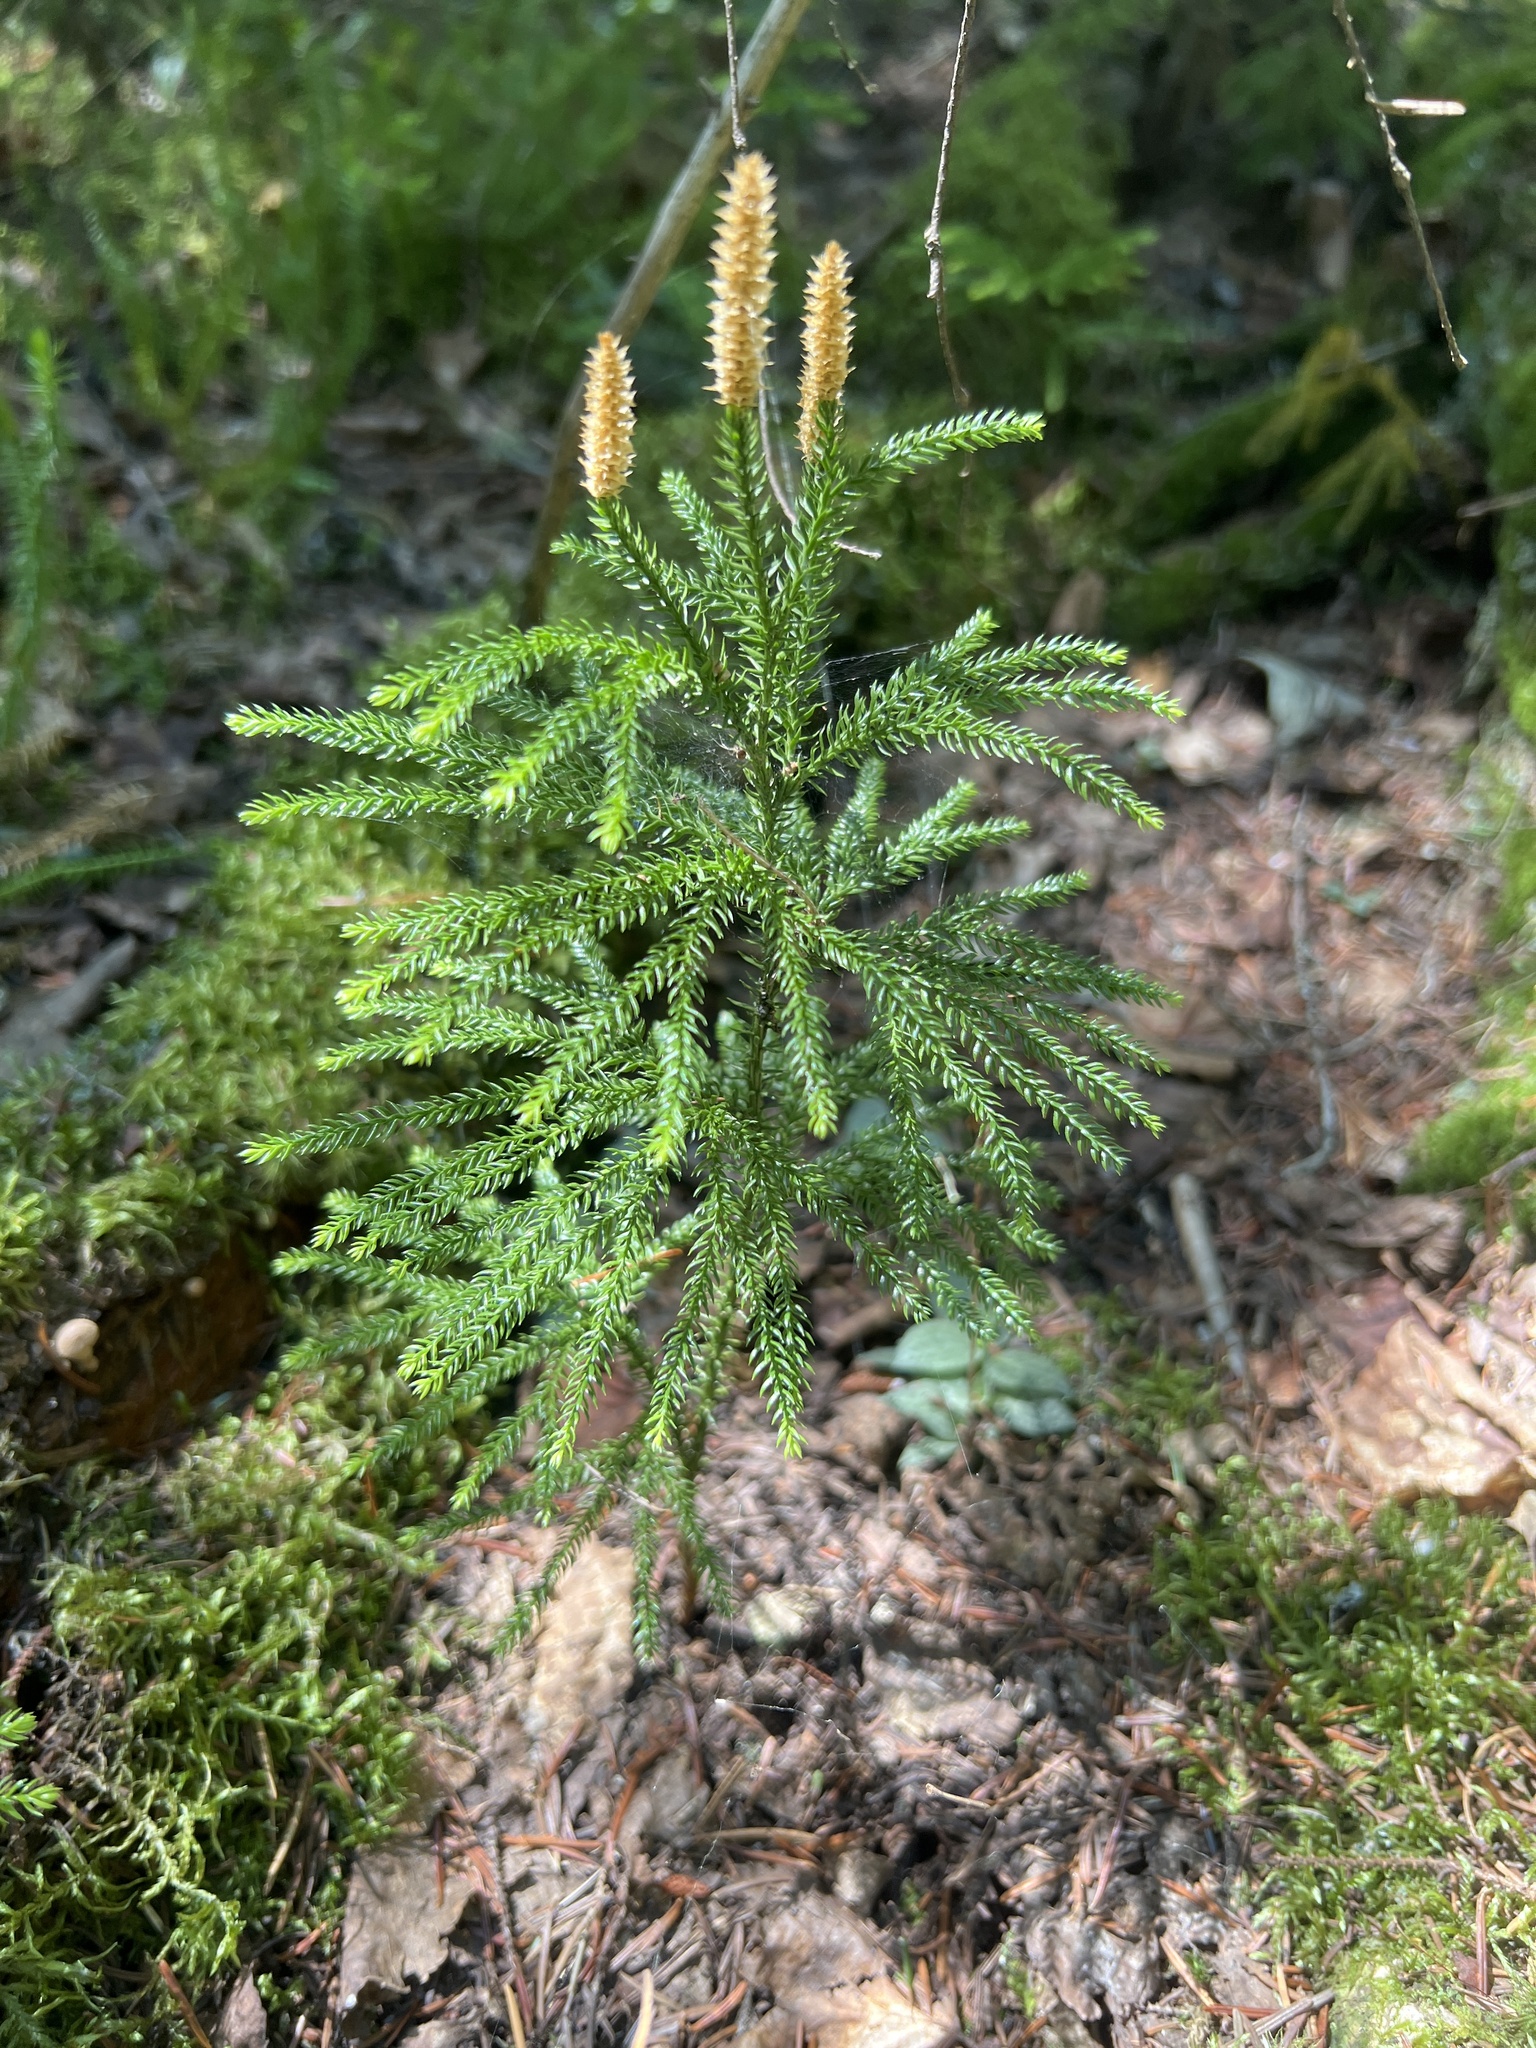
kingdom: Plantae
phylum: Tracheophyta
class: Lycopodiopsida
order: Lycopodiales
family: Lycopodiaceae
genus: Dendrolycopodium
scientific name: Dendrolycopodium dendroideum
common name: Northern tree-clubmoss
